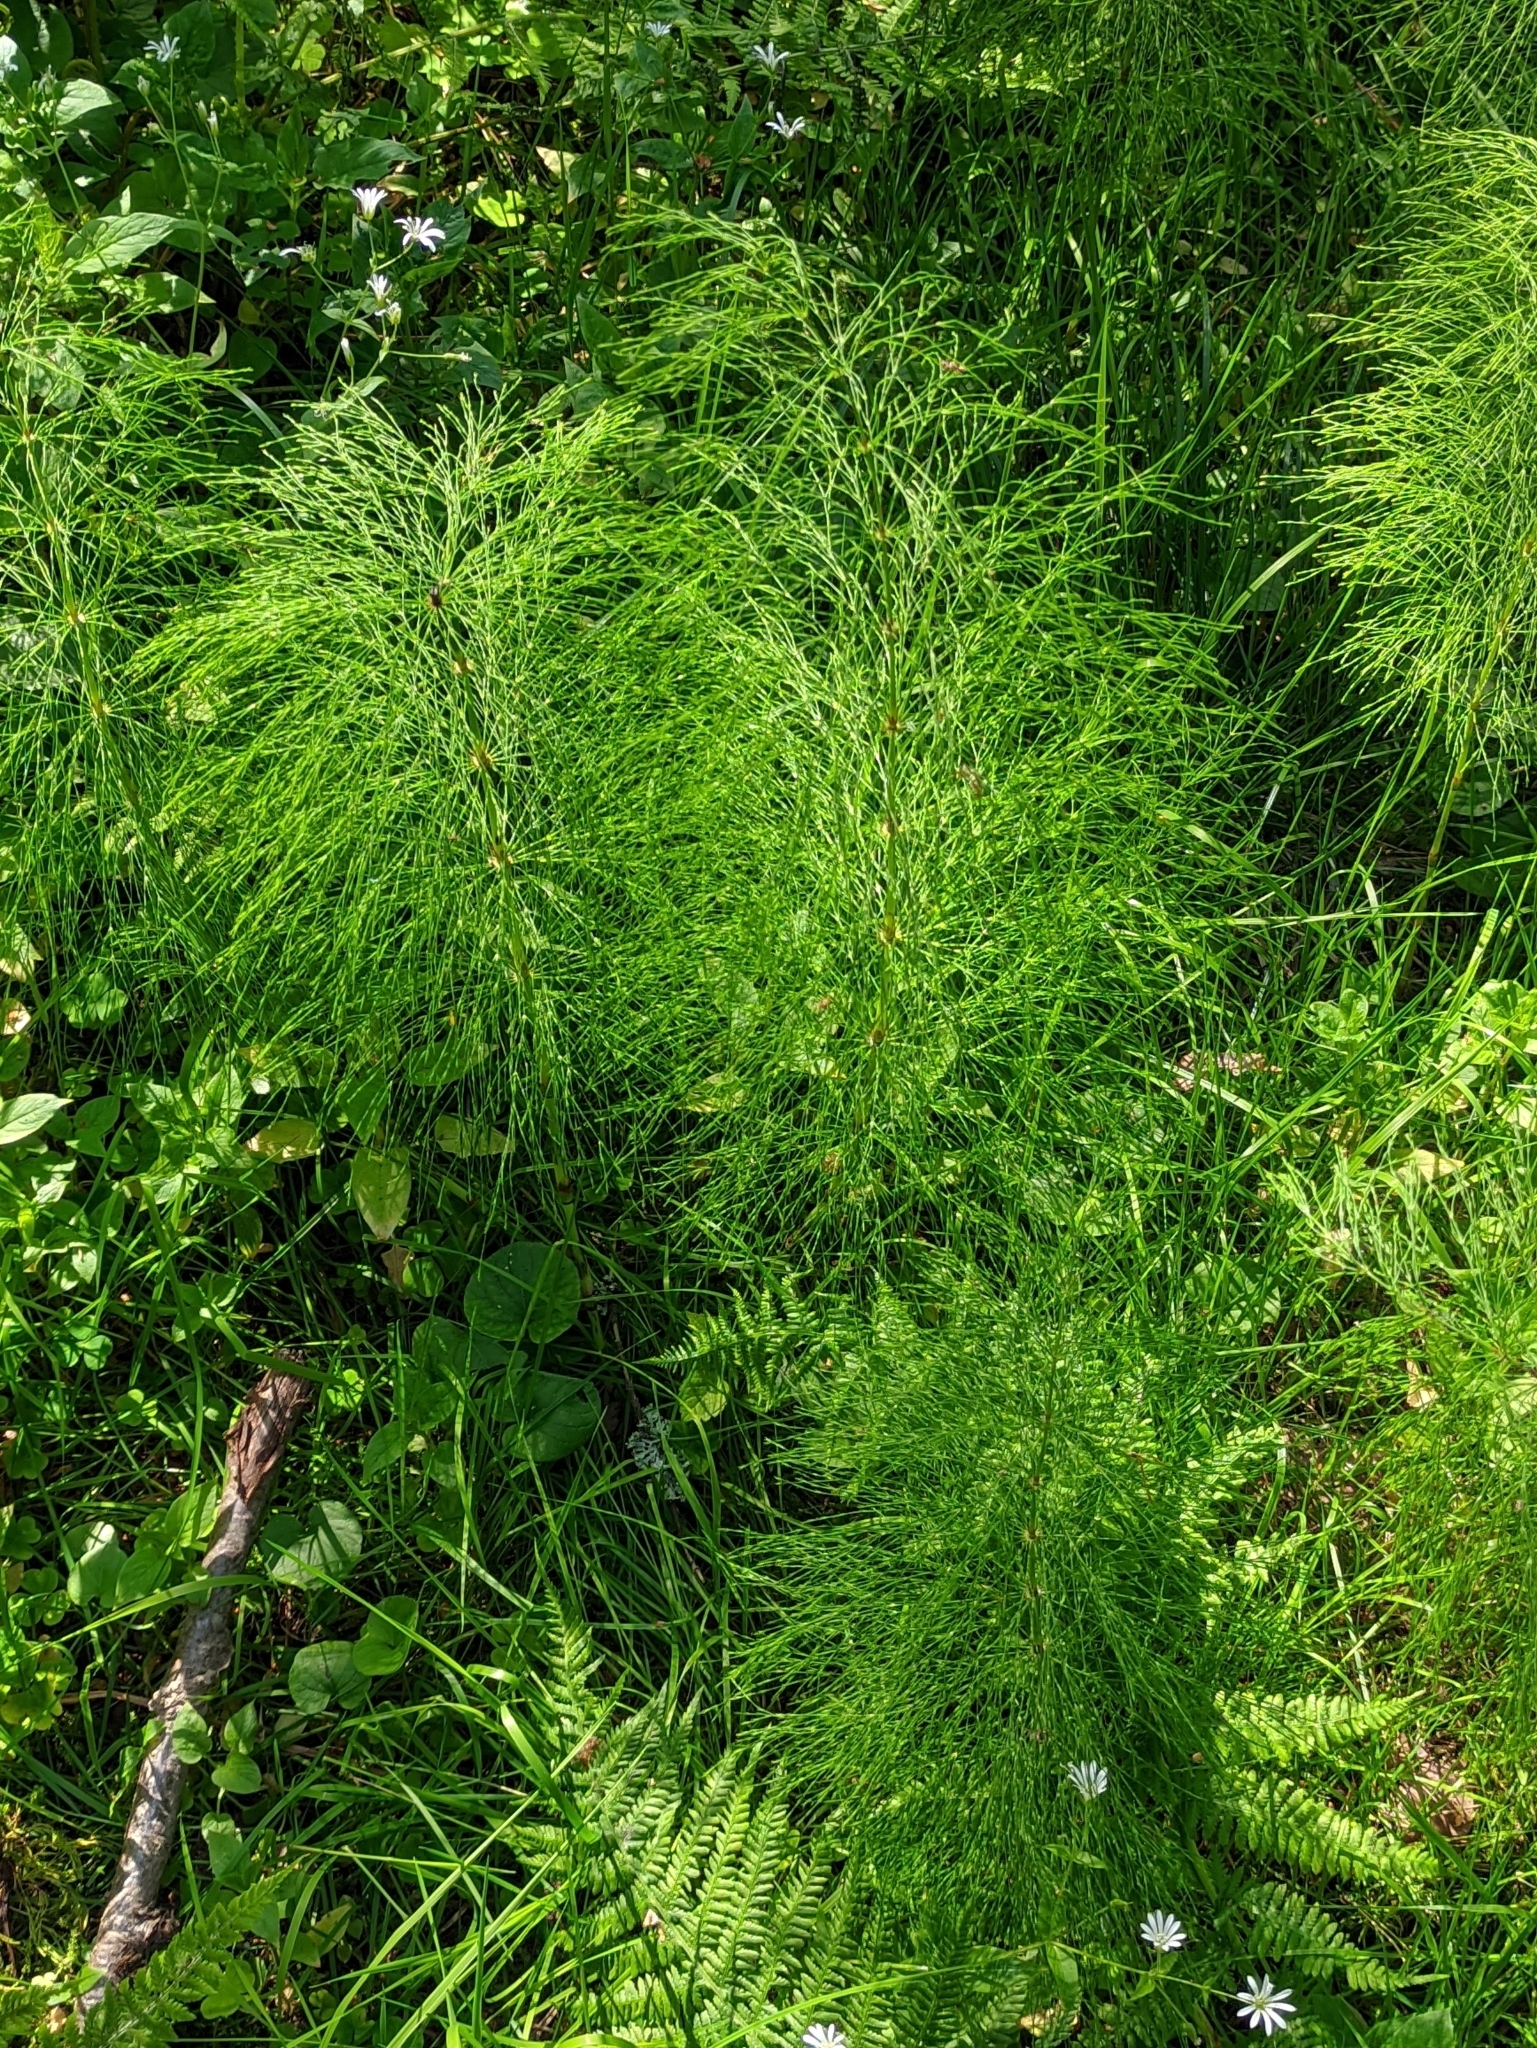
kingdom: Plantae
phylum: Tracheophyta
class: Polypodiopsida
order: Equisetales
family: Equisetaceae
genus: Equisetum
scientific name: Equisetum sylvaticum
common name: Wood horsetail
